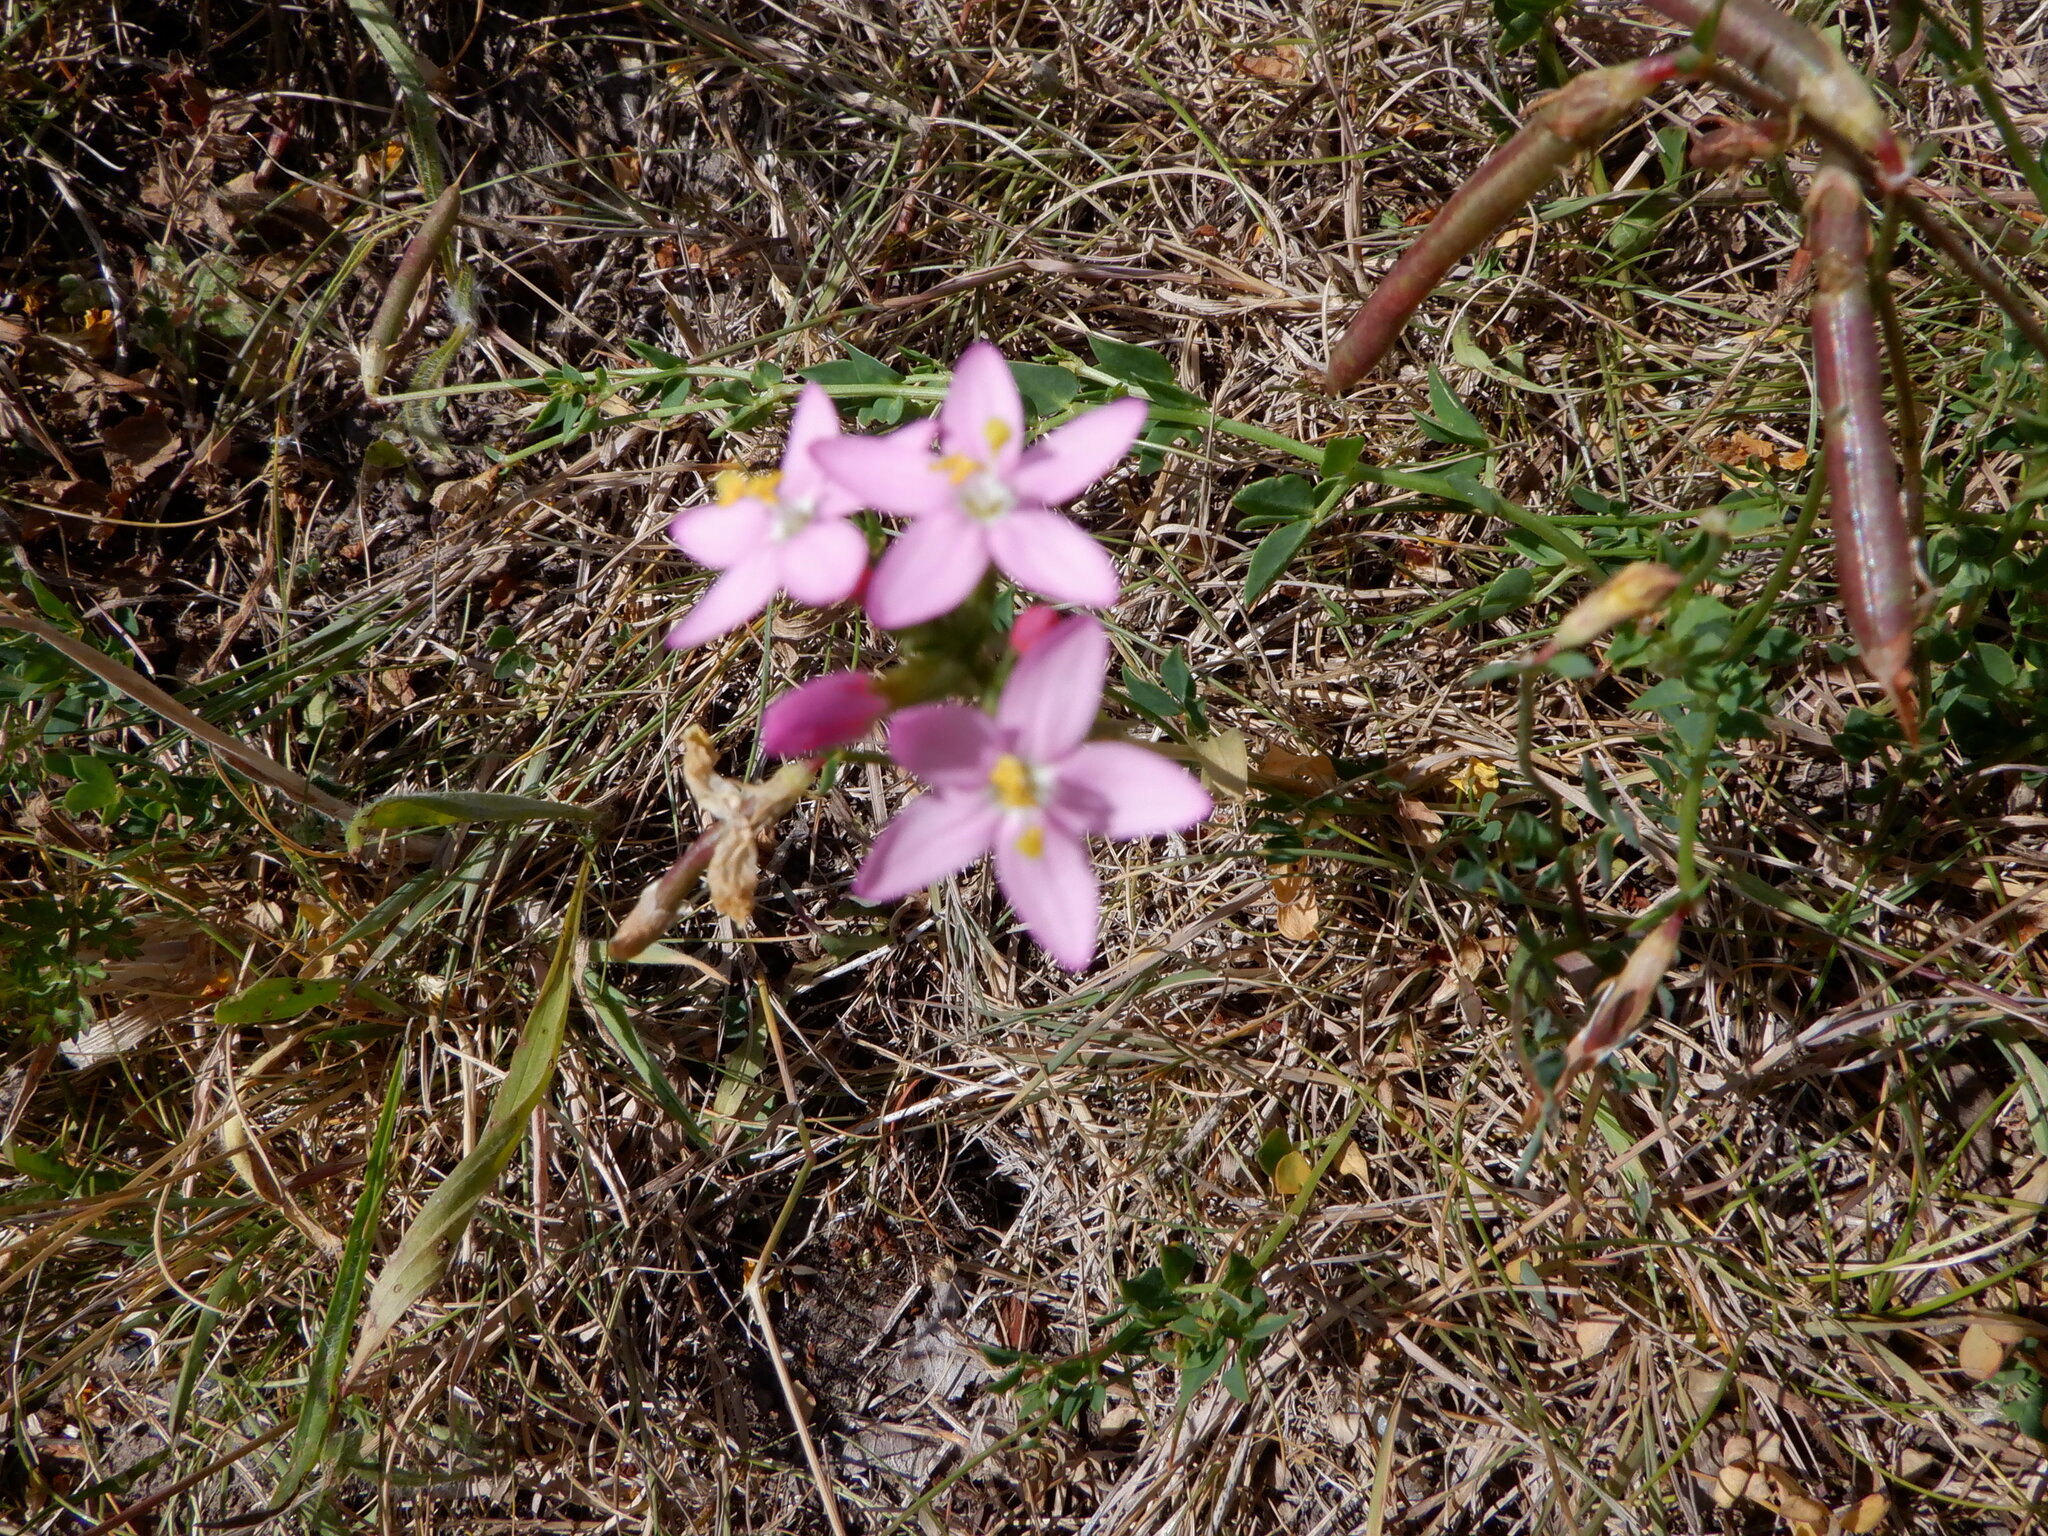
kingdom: Plantae
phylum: Tracheophyta
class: Magnoliopsida
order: Gentianales
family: Gentianaceae
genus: Centaurium
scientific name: Centaurium erythraea
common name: Common centaury
